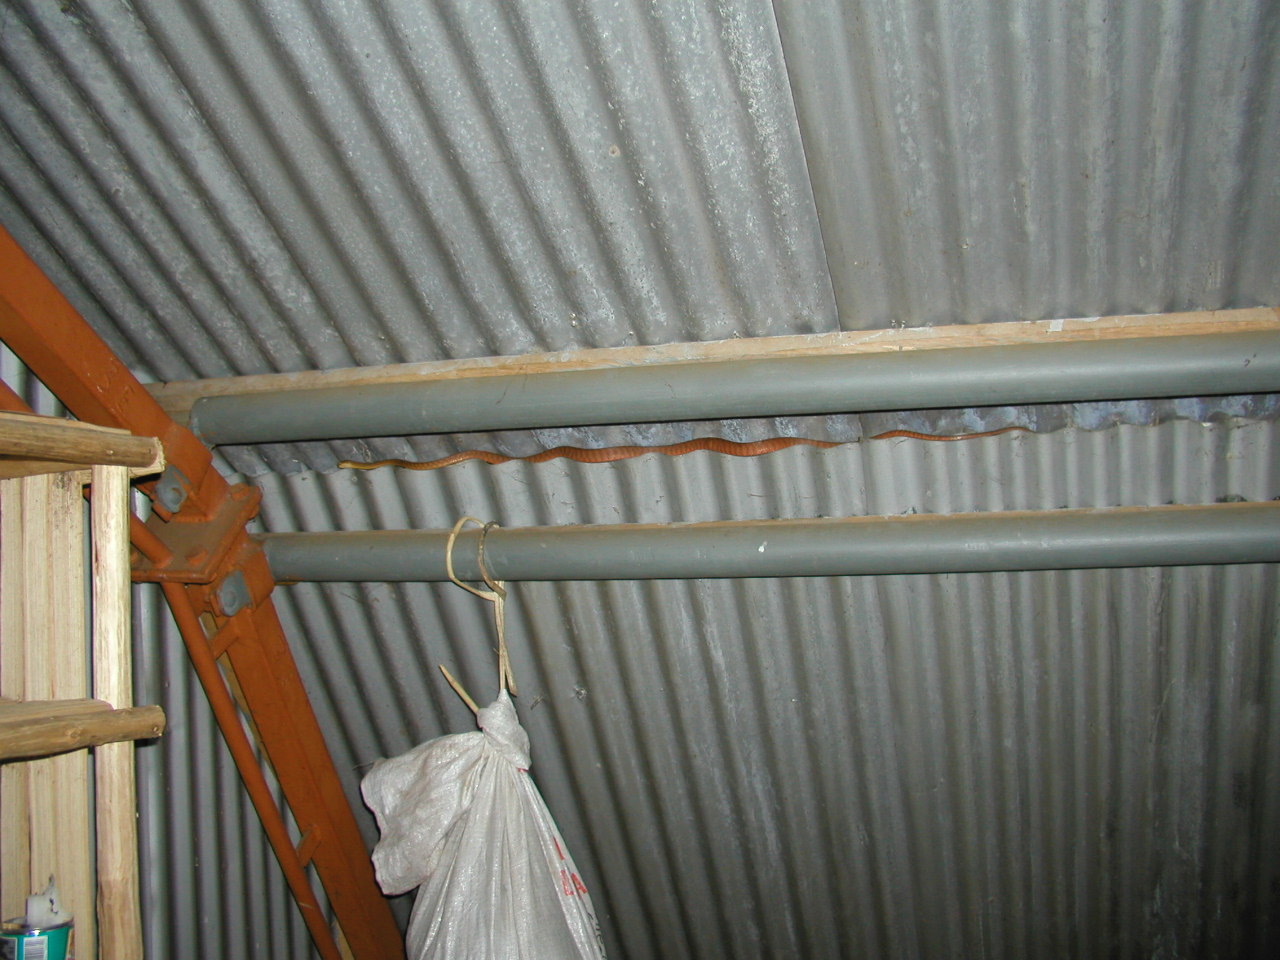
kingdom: Animalia
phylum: Chordata
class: Squamata
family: Colubridae
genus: Boiga
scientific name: Boiga irregularis
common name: Brown tree snake
